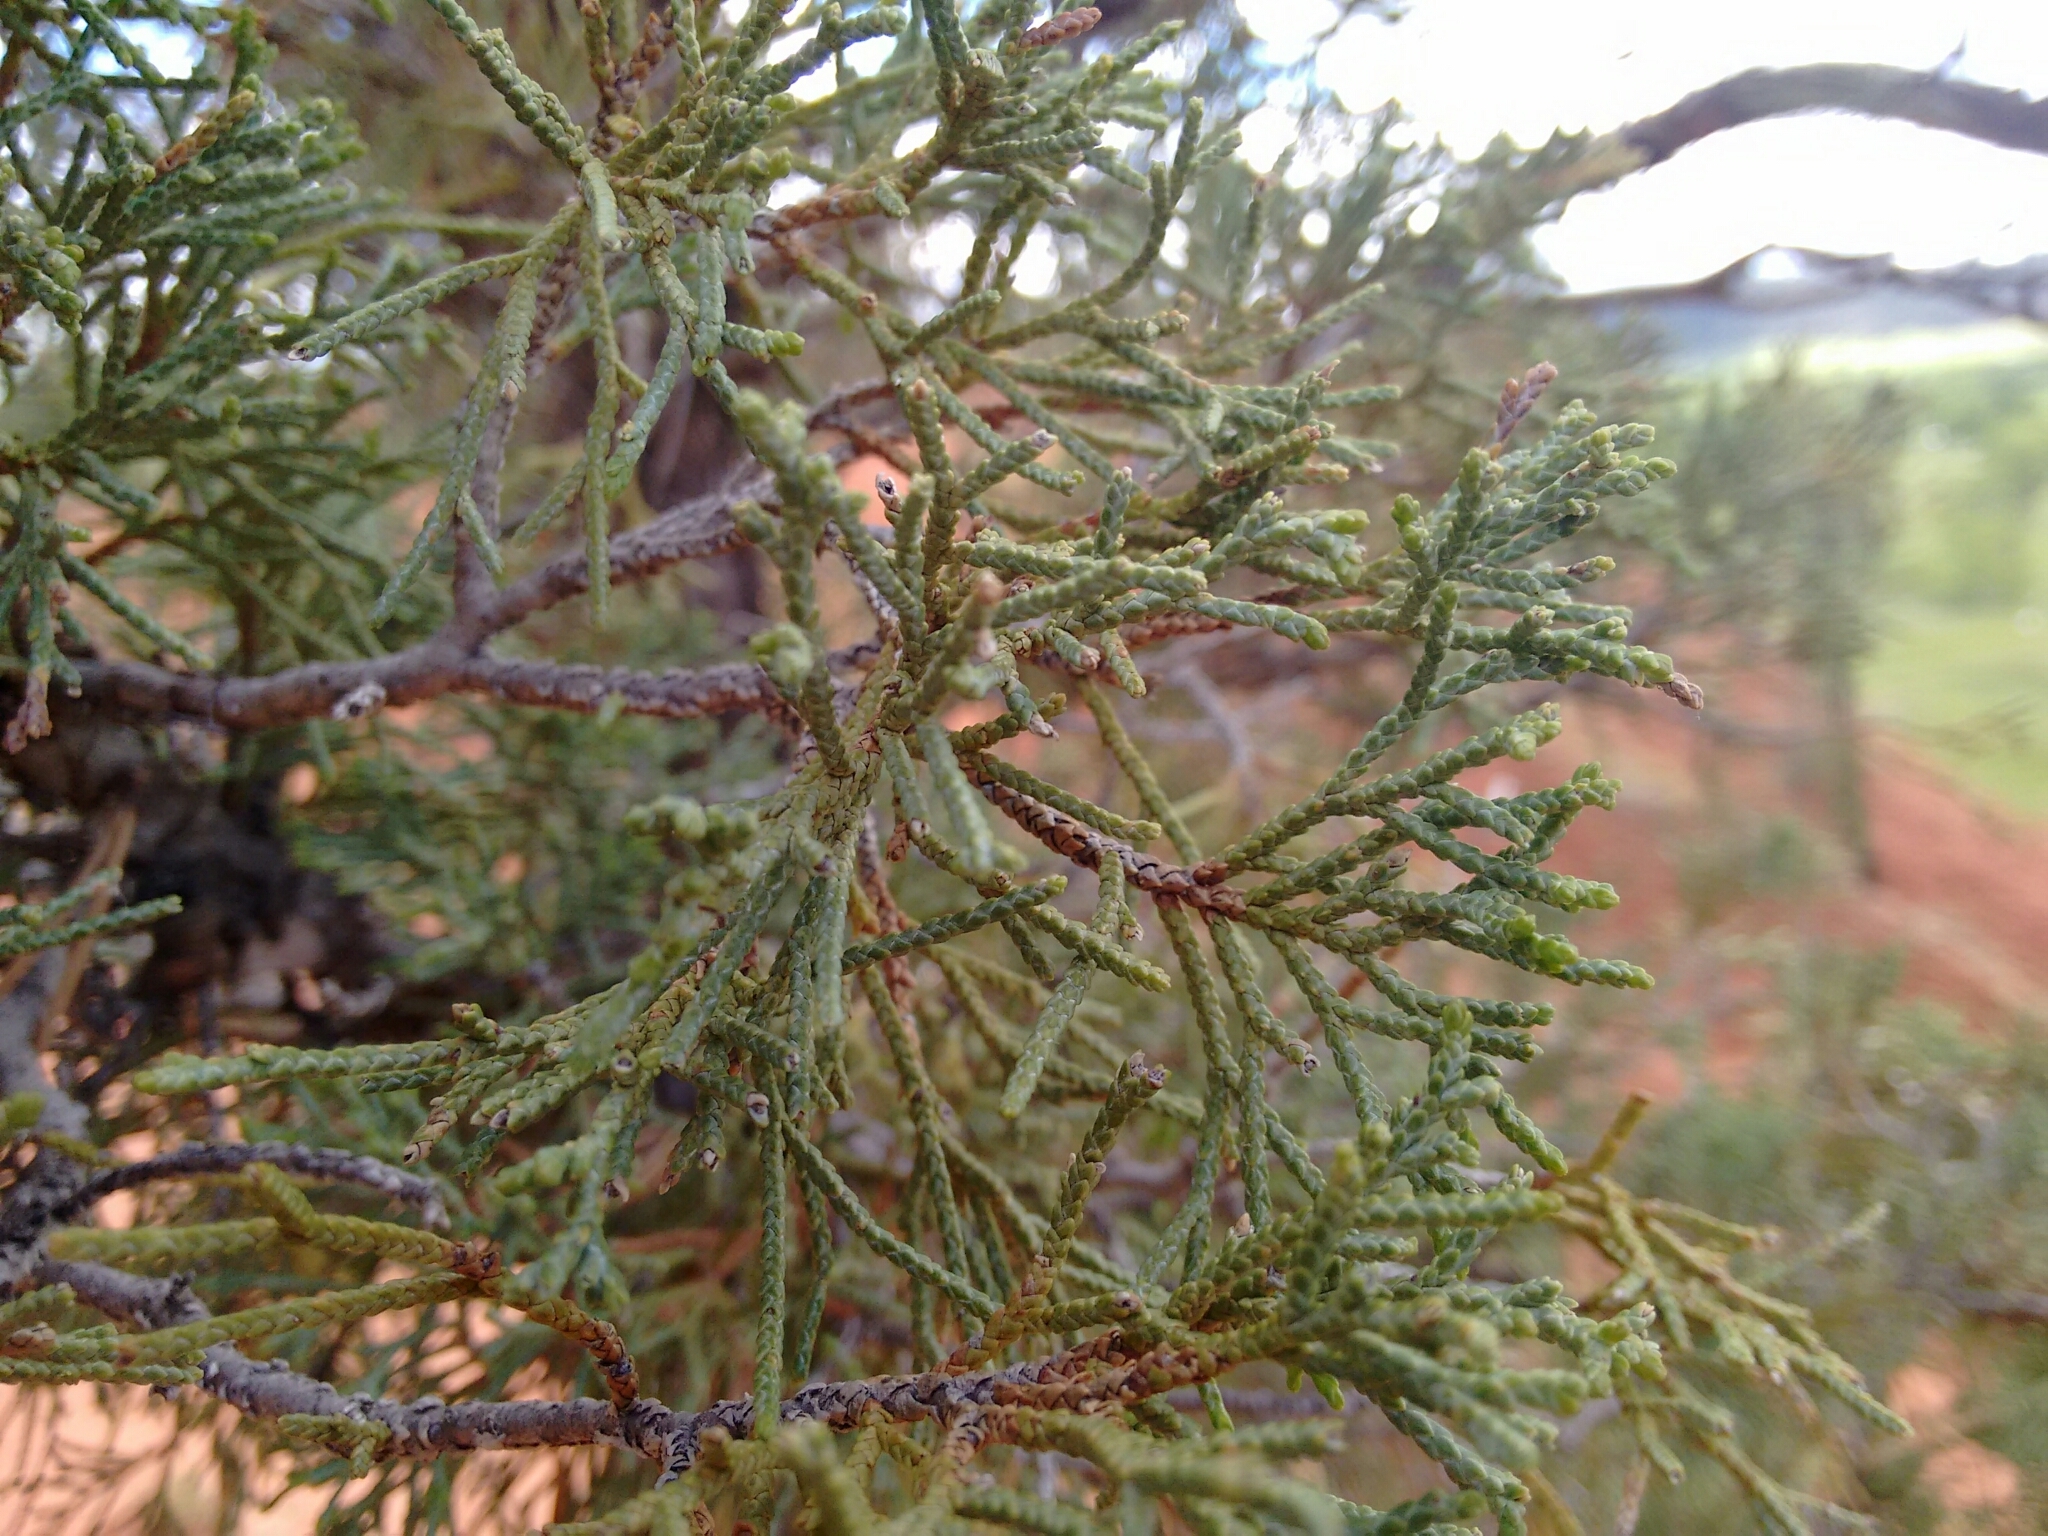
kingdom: Plantae
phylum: Tracheophyta
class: Pinopsida
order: Pinales
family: Cupressaceae
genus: Juniperus
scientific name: Juniperus scopulorum
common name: Rocky mountain juniper
